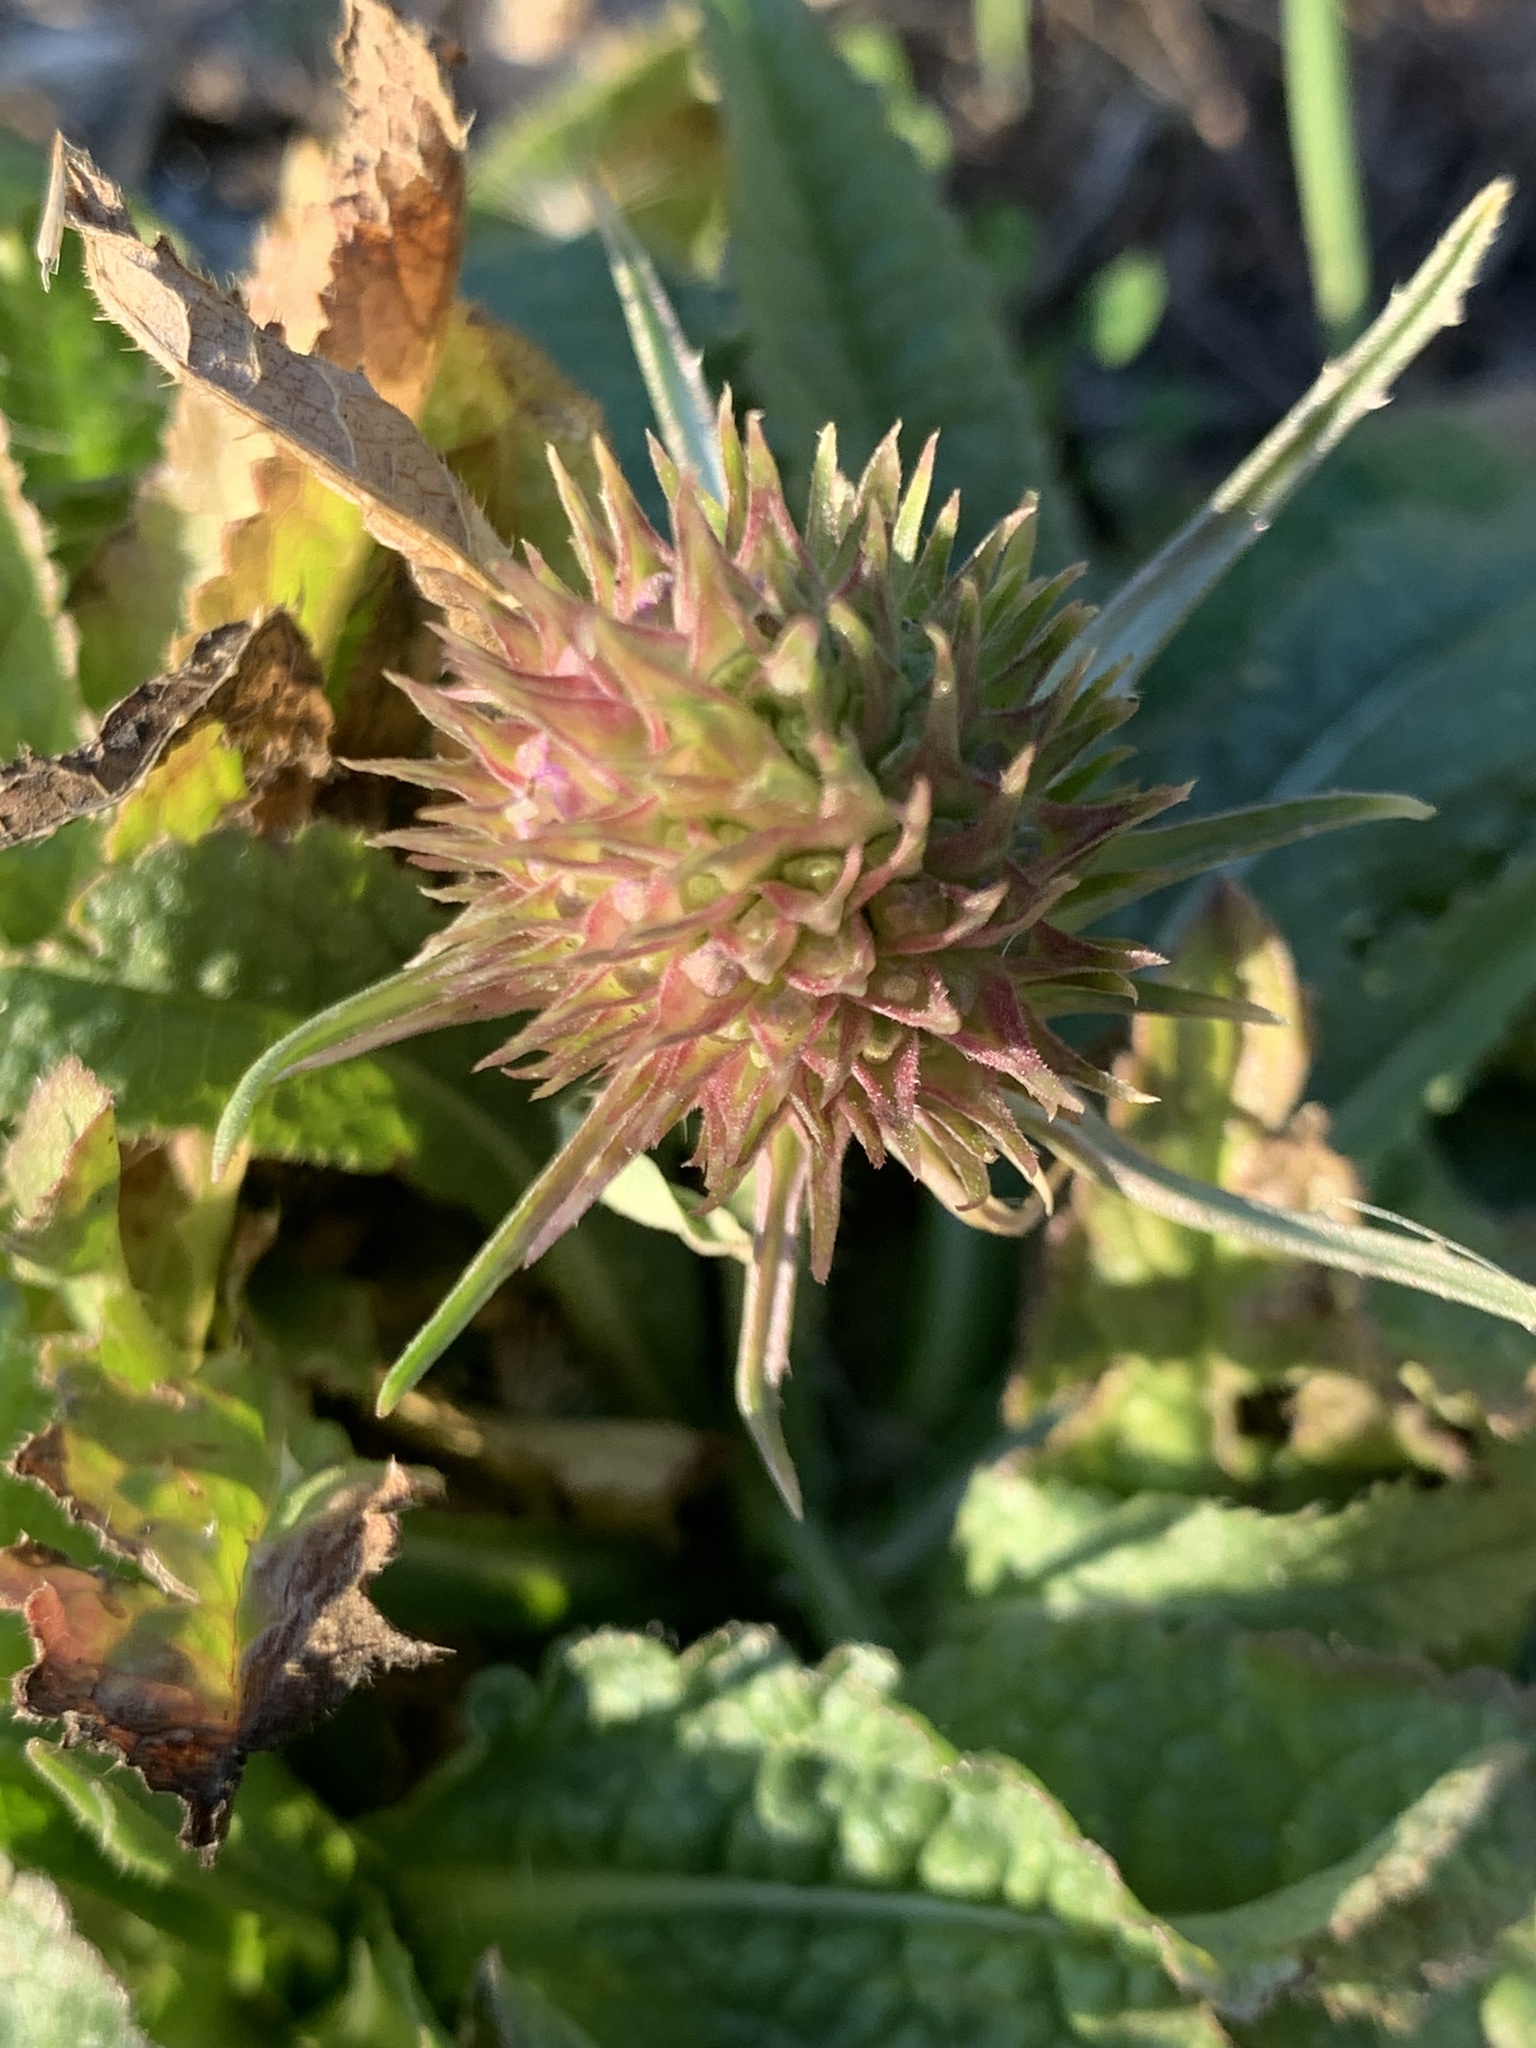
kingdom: Plantae
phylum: Tracheophyta
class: Magnoliopsida
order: Dipsacales
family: Caprifoliaceae
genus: Dipsacus
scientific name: Dipsacus fullonum
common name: Teasel
